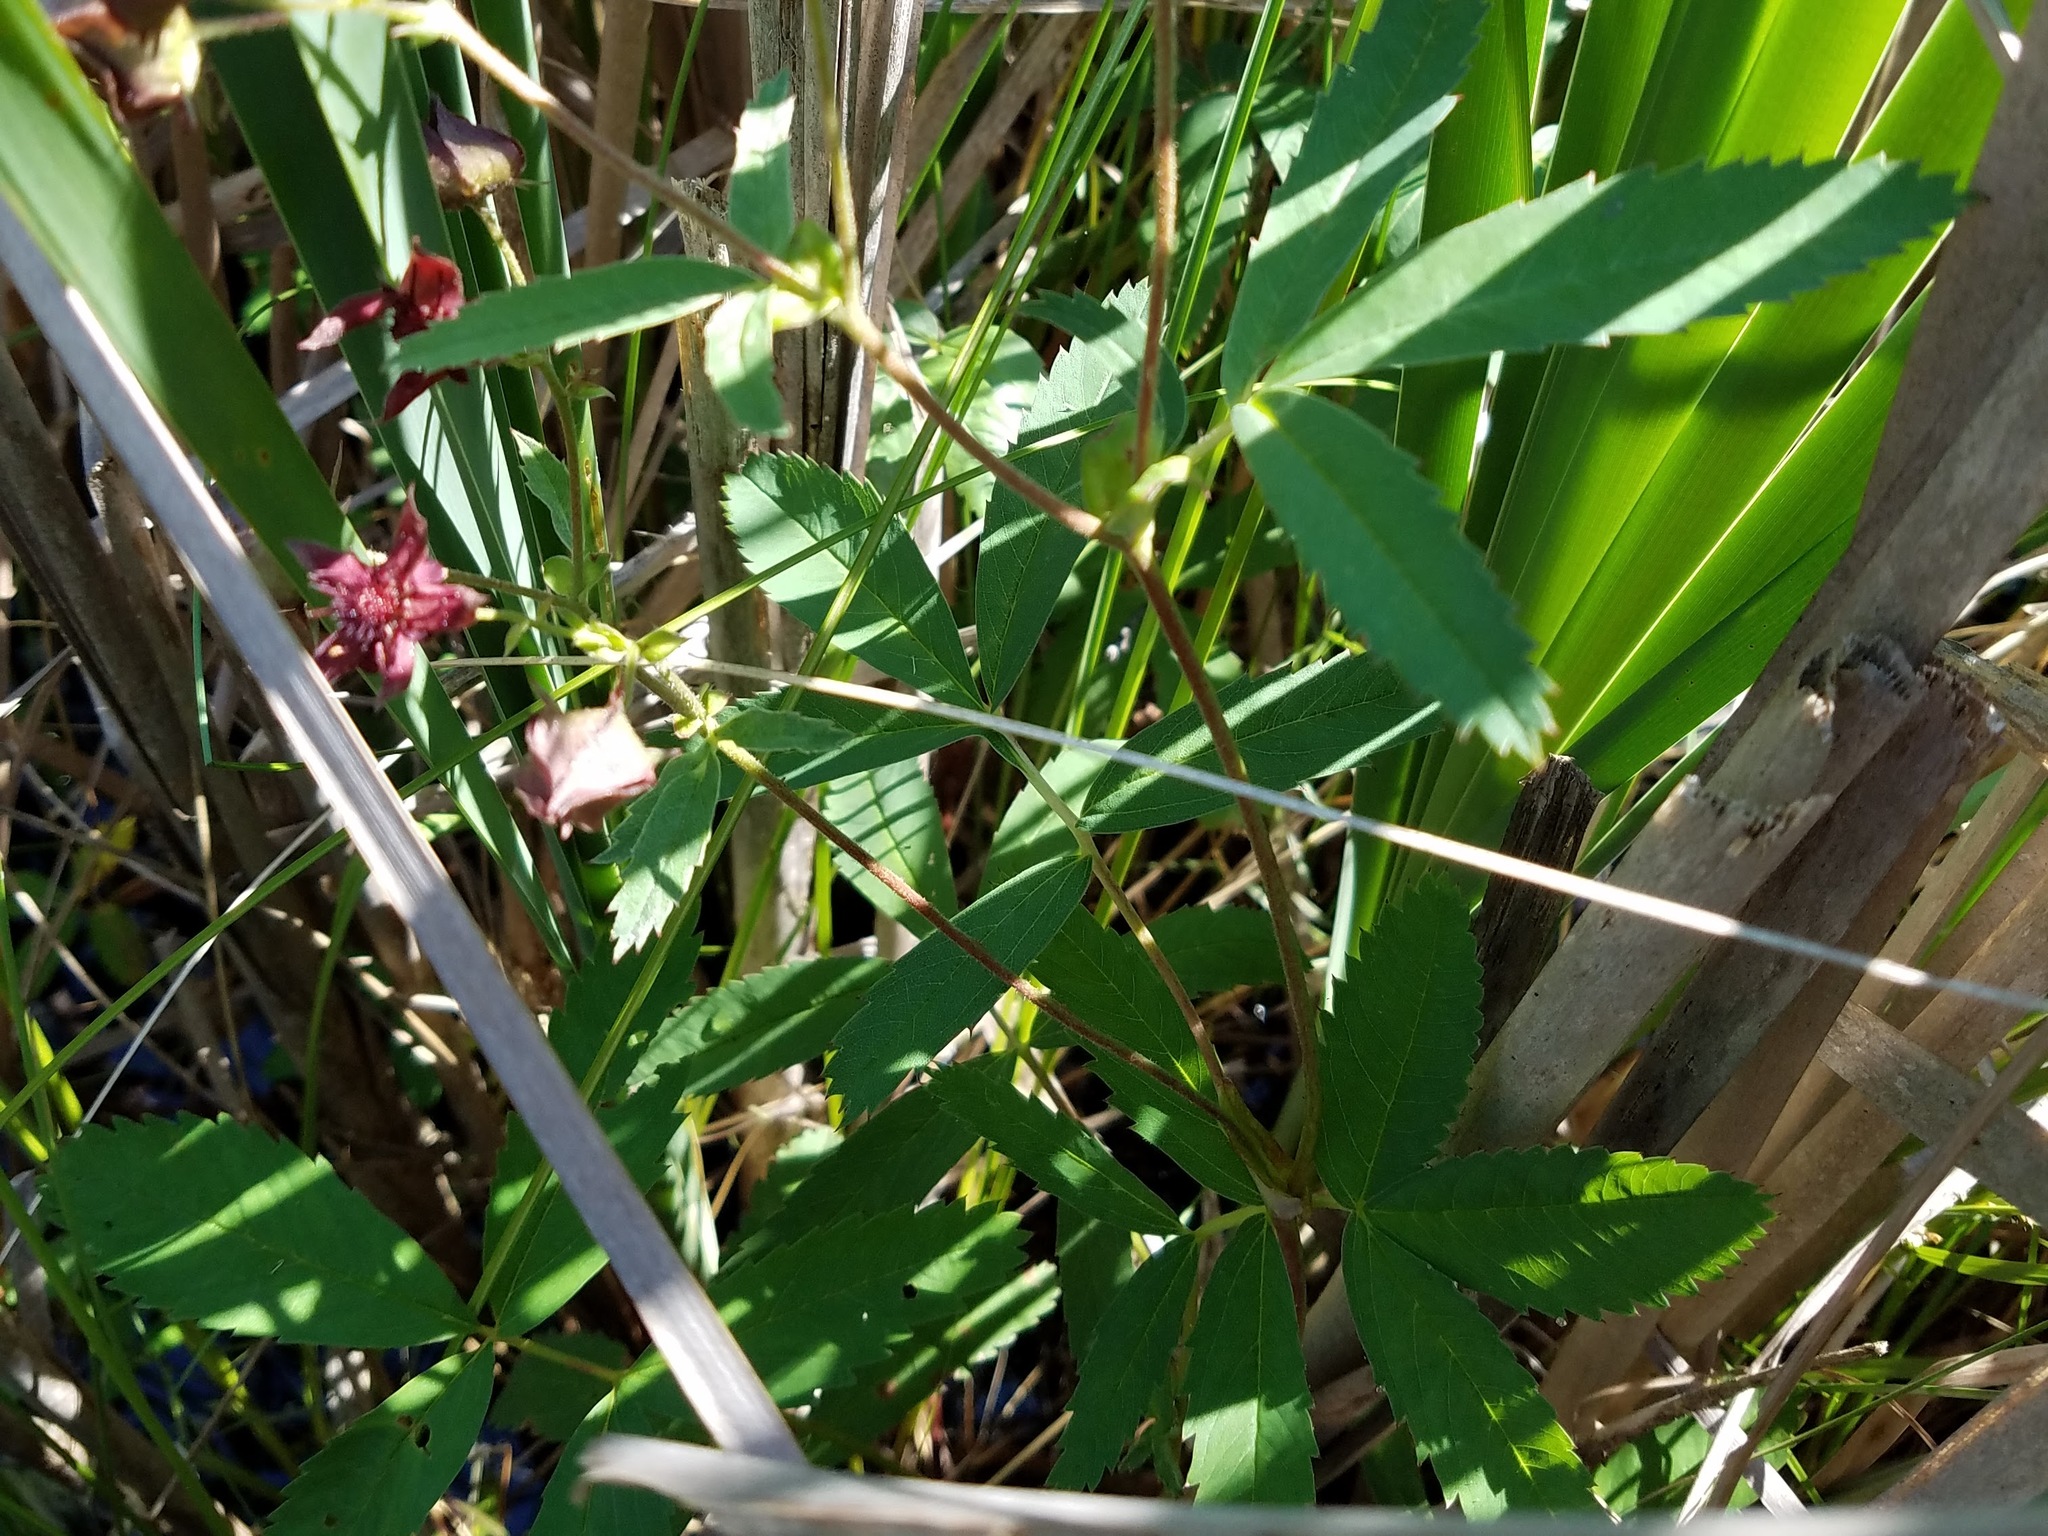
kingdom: Plantae
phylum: Tracheophyta
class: Magnoliopsida
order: Rosales
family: Rosaceae
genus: Comarum
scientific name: Comarum palustre
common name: Marsh cinquefoil
